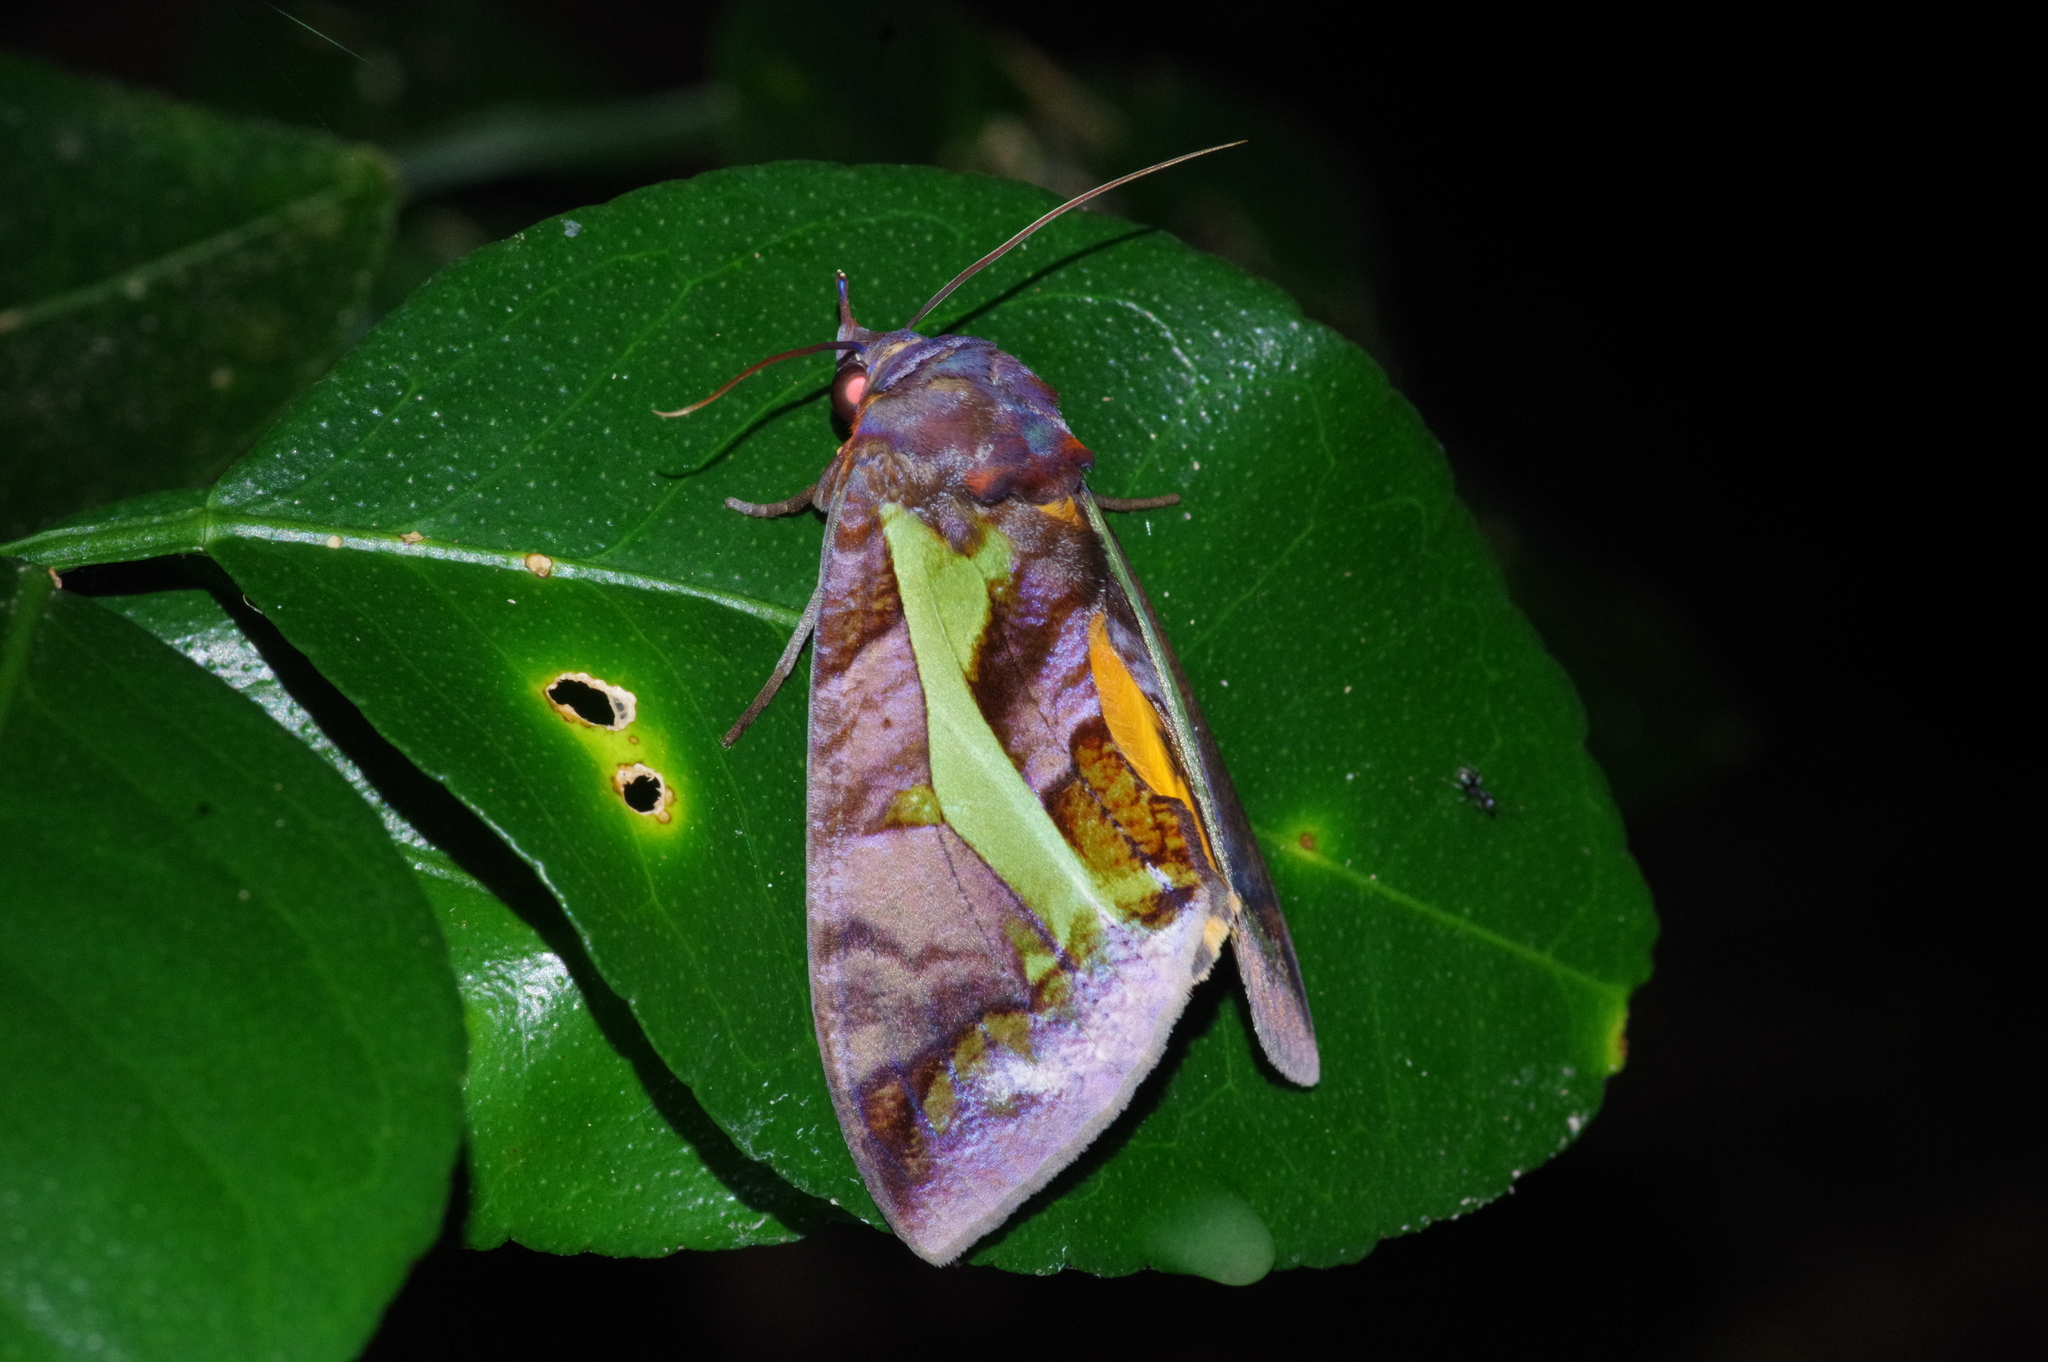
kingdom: Animalia
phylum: Arthropoda
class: Insecta
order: Lepidoptera
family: Erebidae
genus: Eudocima
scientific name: Eudocima homaena
